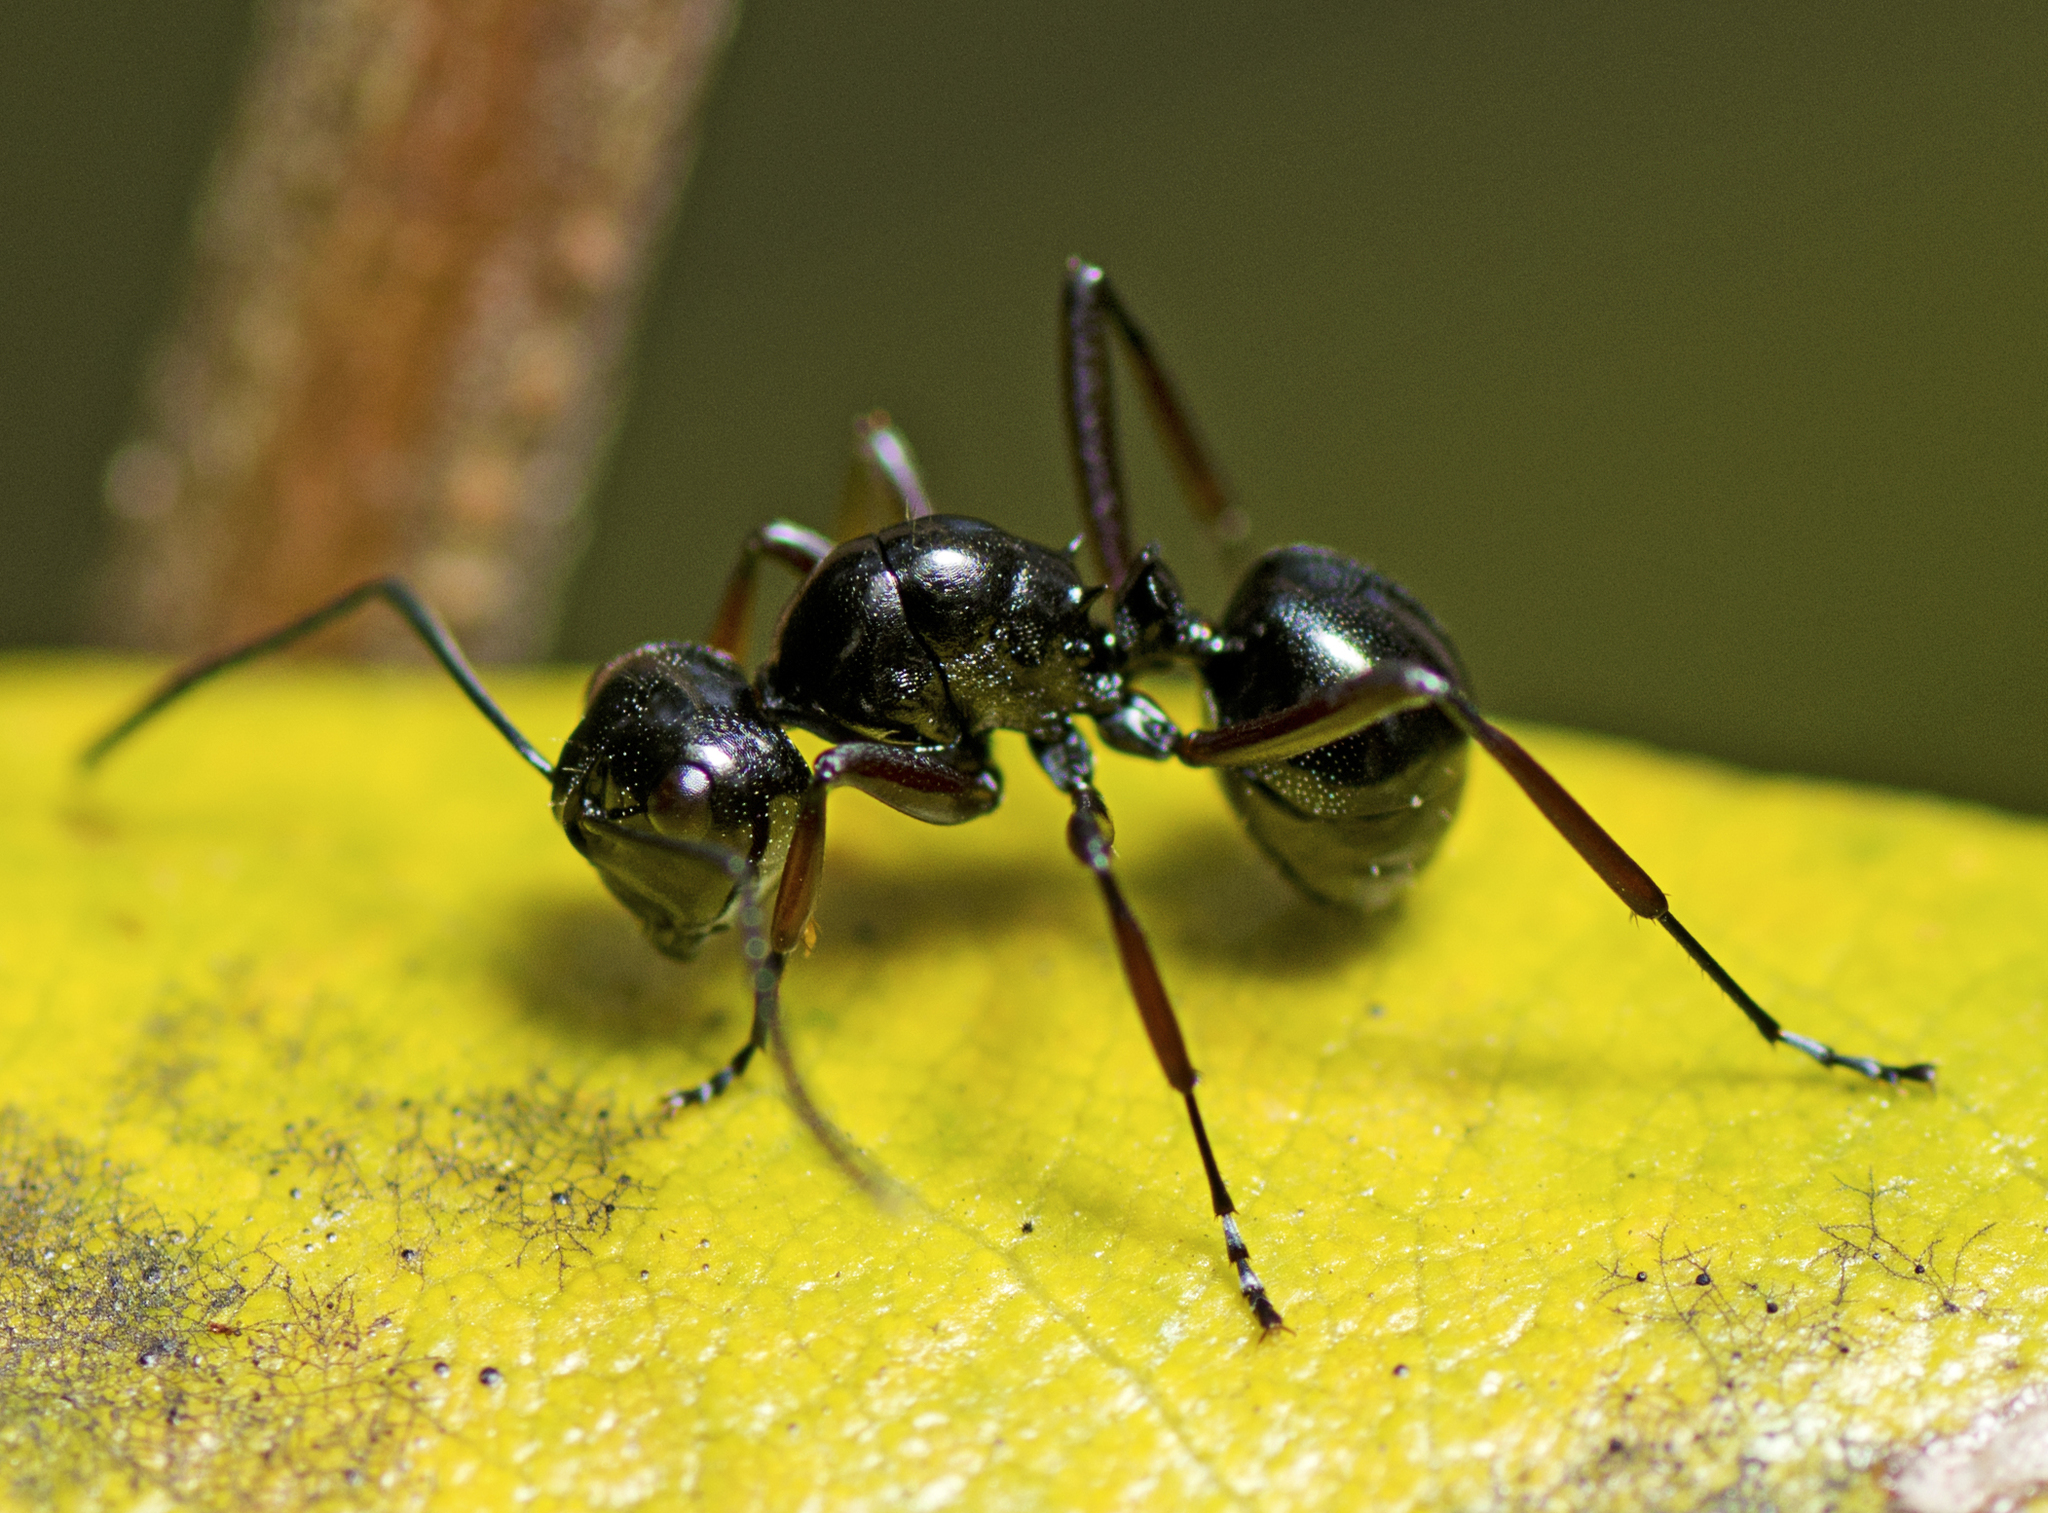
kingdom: Animalia
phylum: Arthropoda
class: Insecta
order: Hymenoptera
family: Formicidae
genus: Polyrhachis
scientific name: Polyrhachis australis
